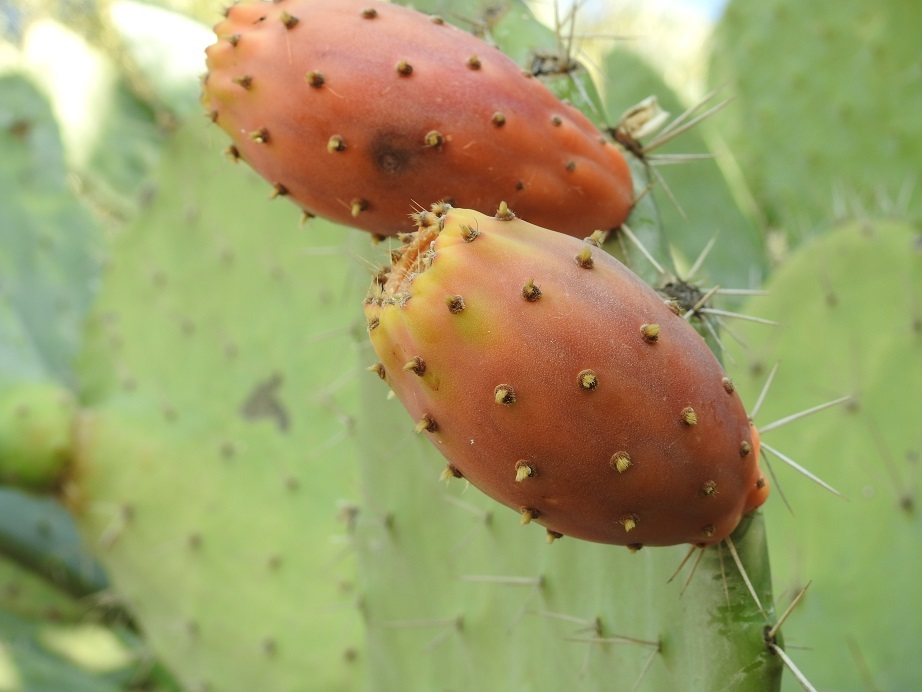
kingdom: Plantae
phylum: Tracheophyta
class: Magnoliopsida
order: Caryophyllales
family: Cactaceae
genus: Opuntia
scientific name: Opuntia ficus-indica
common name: Barbary fig
